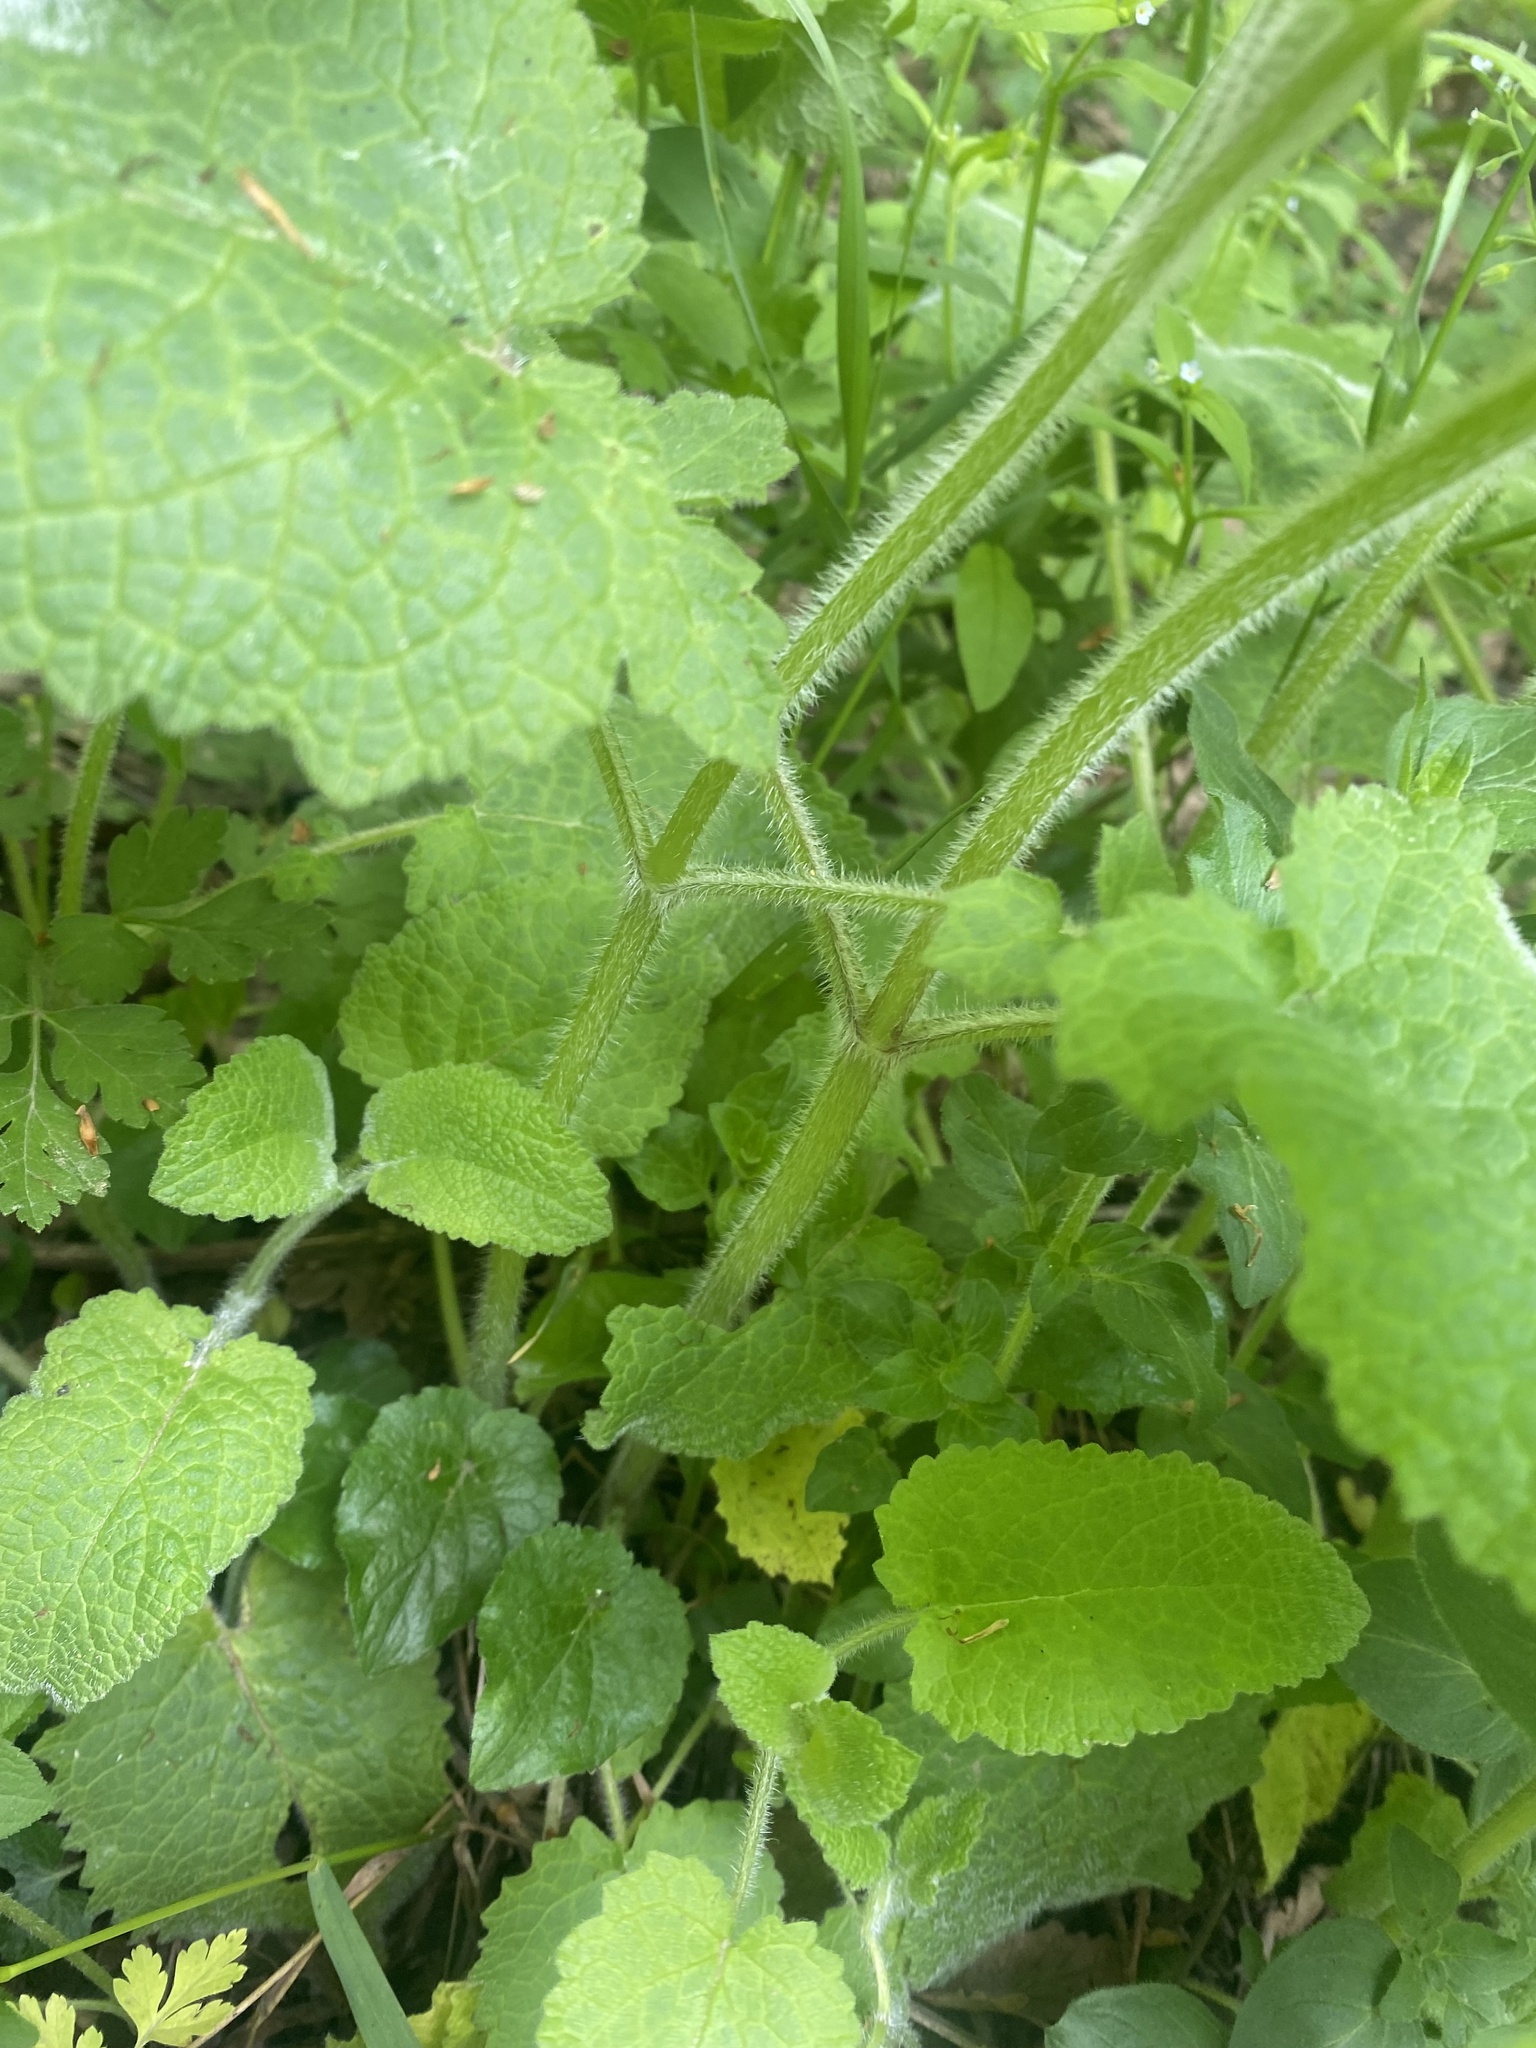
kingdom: Plantae
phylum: Tracheophyta
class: Magnoliopsida
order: Lamiales
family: Lamiaceae
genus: Salvia
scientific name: Salvia glutinosa
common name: Sticky clary
